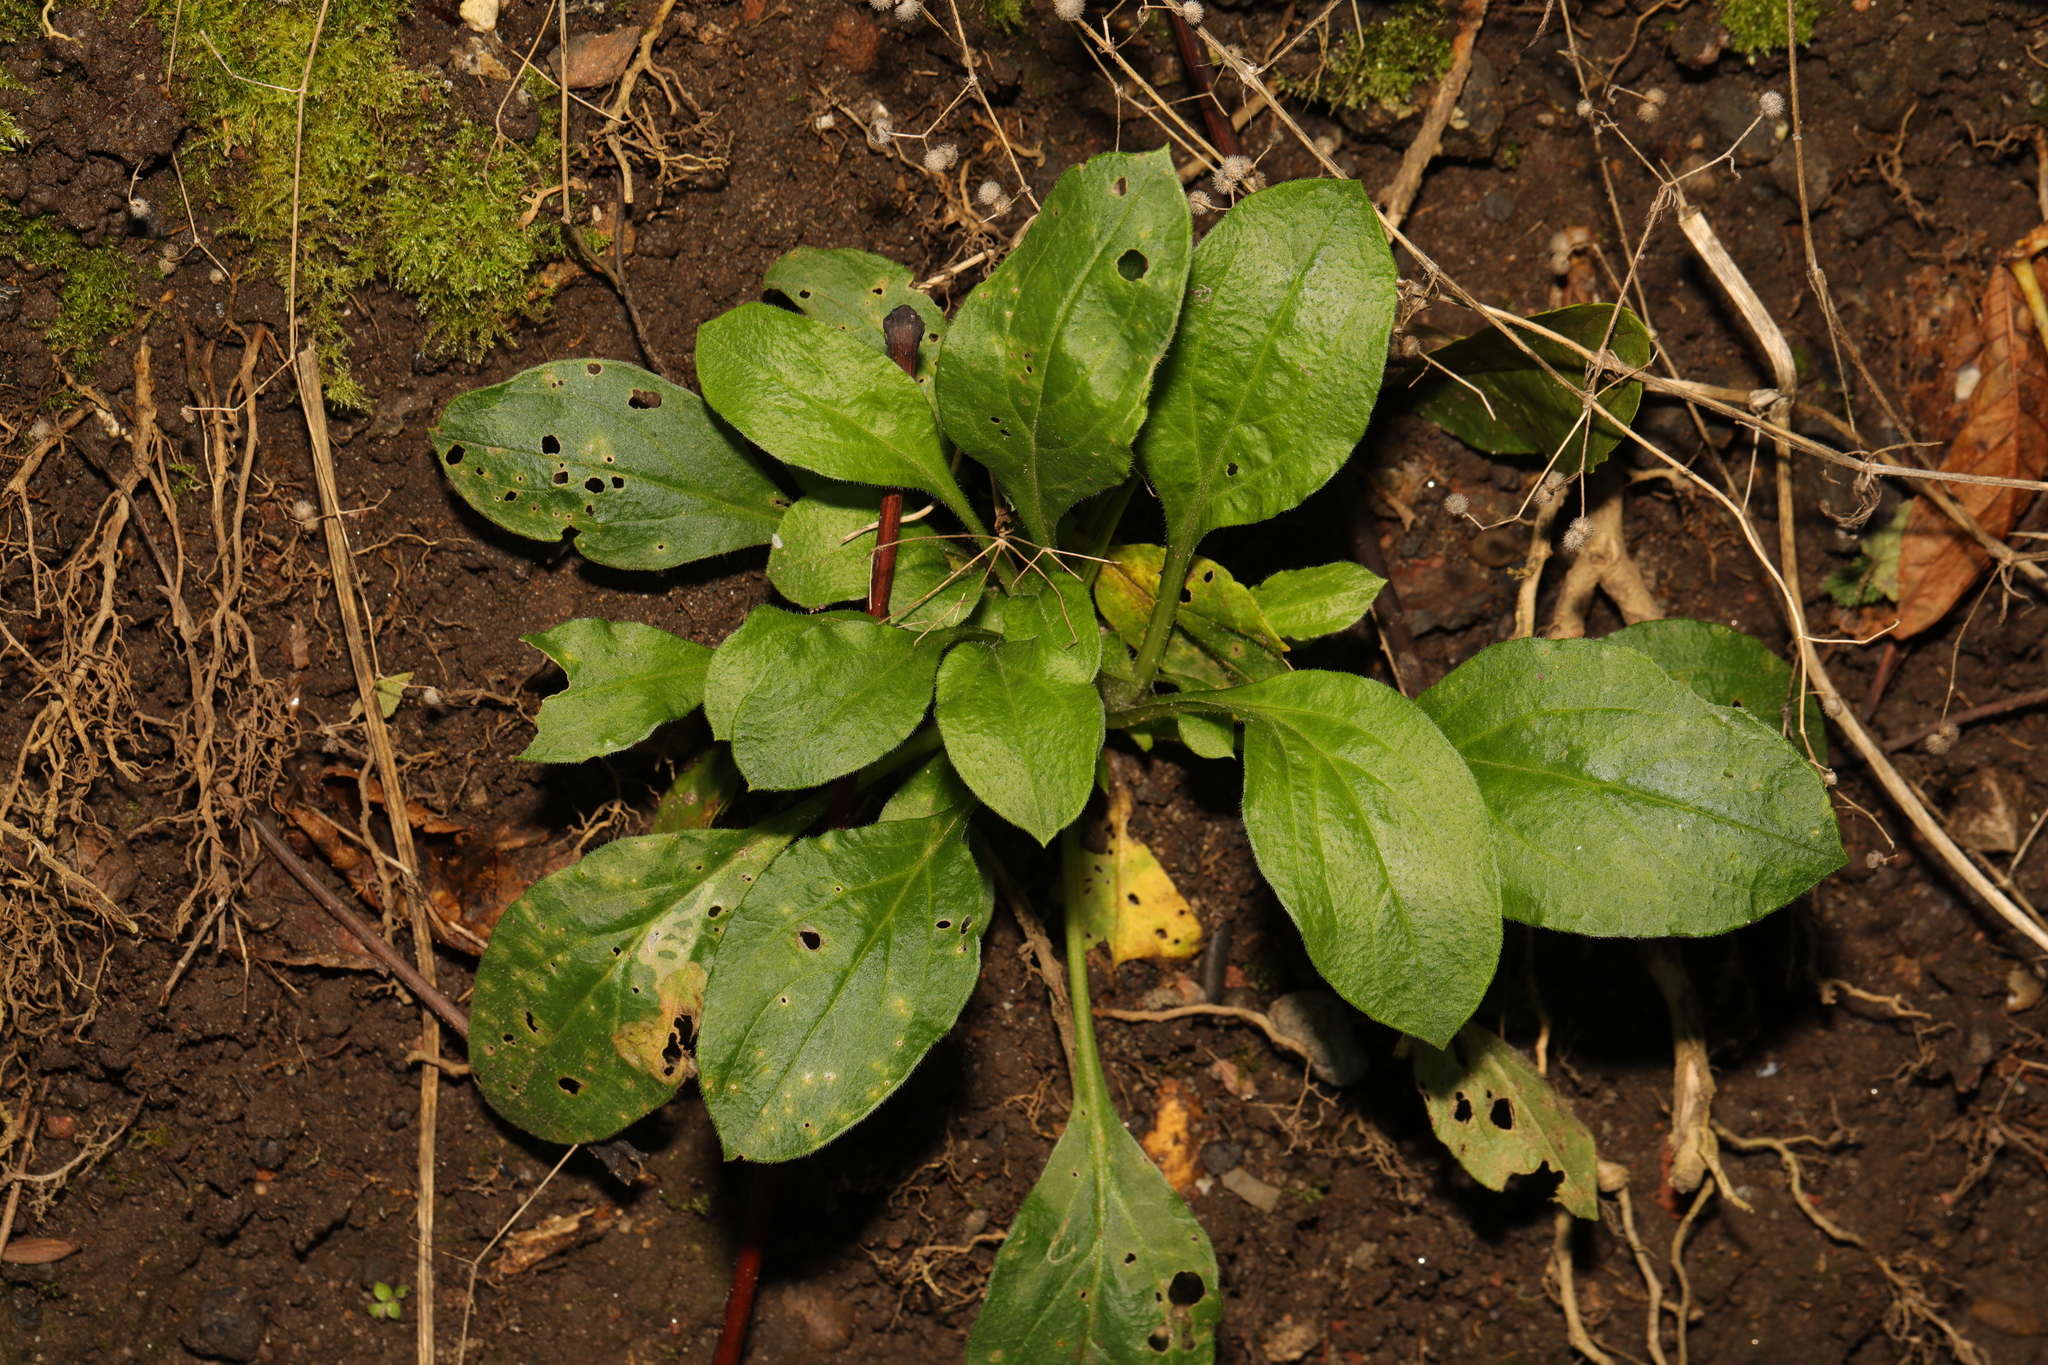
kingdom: Plantae
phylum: Tracheophyta
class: Magnoliopsida
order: Caryophyllales
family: Caryophyllaceae
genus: Silene
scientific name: Silene dioica
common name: Red campion
